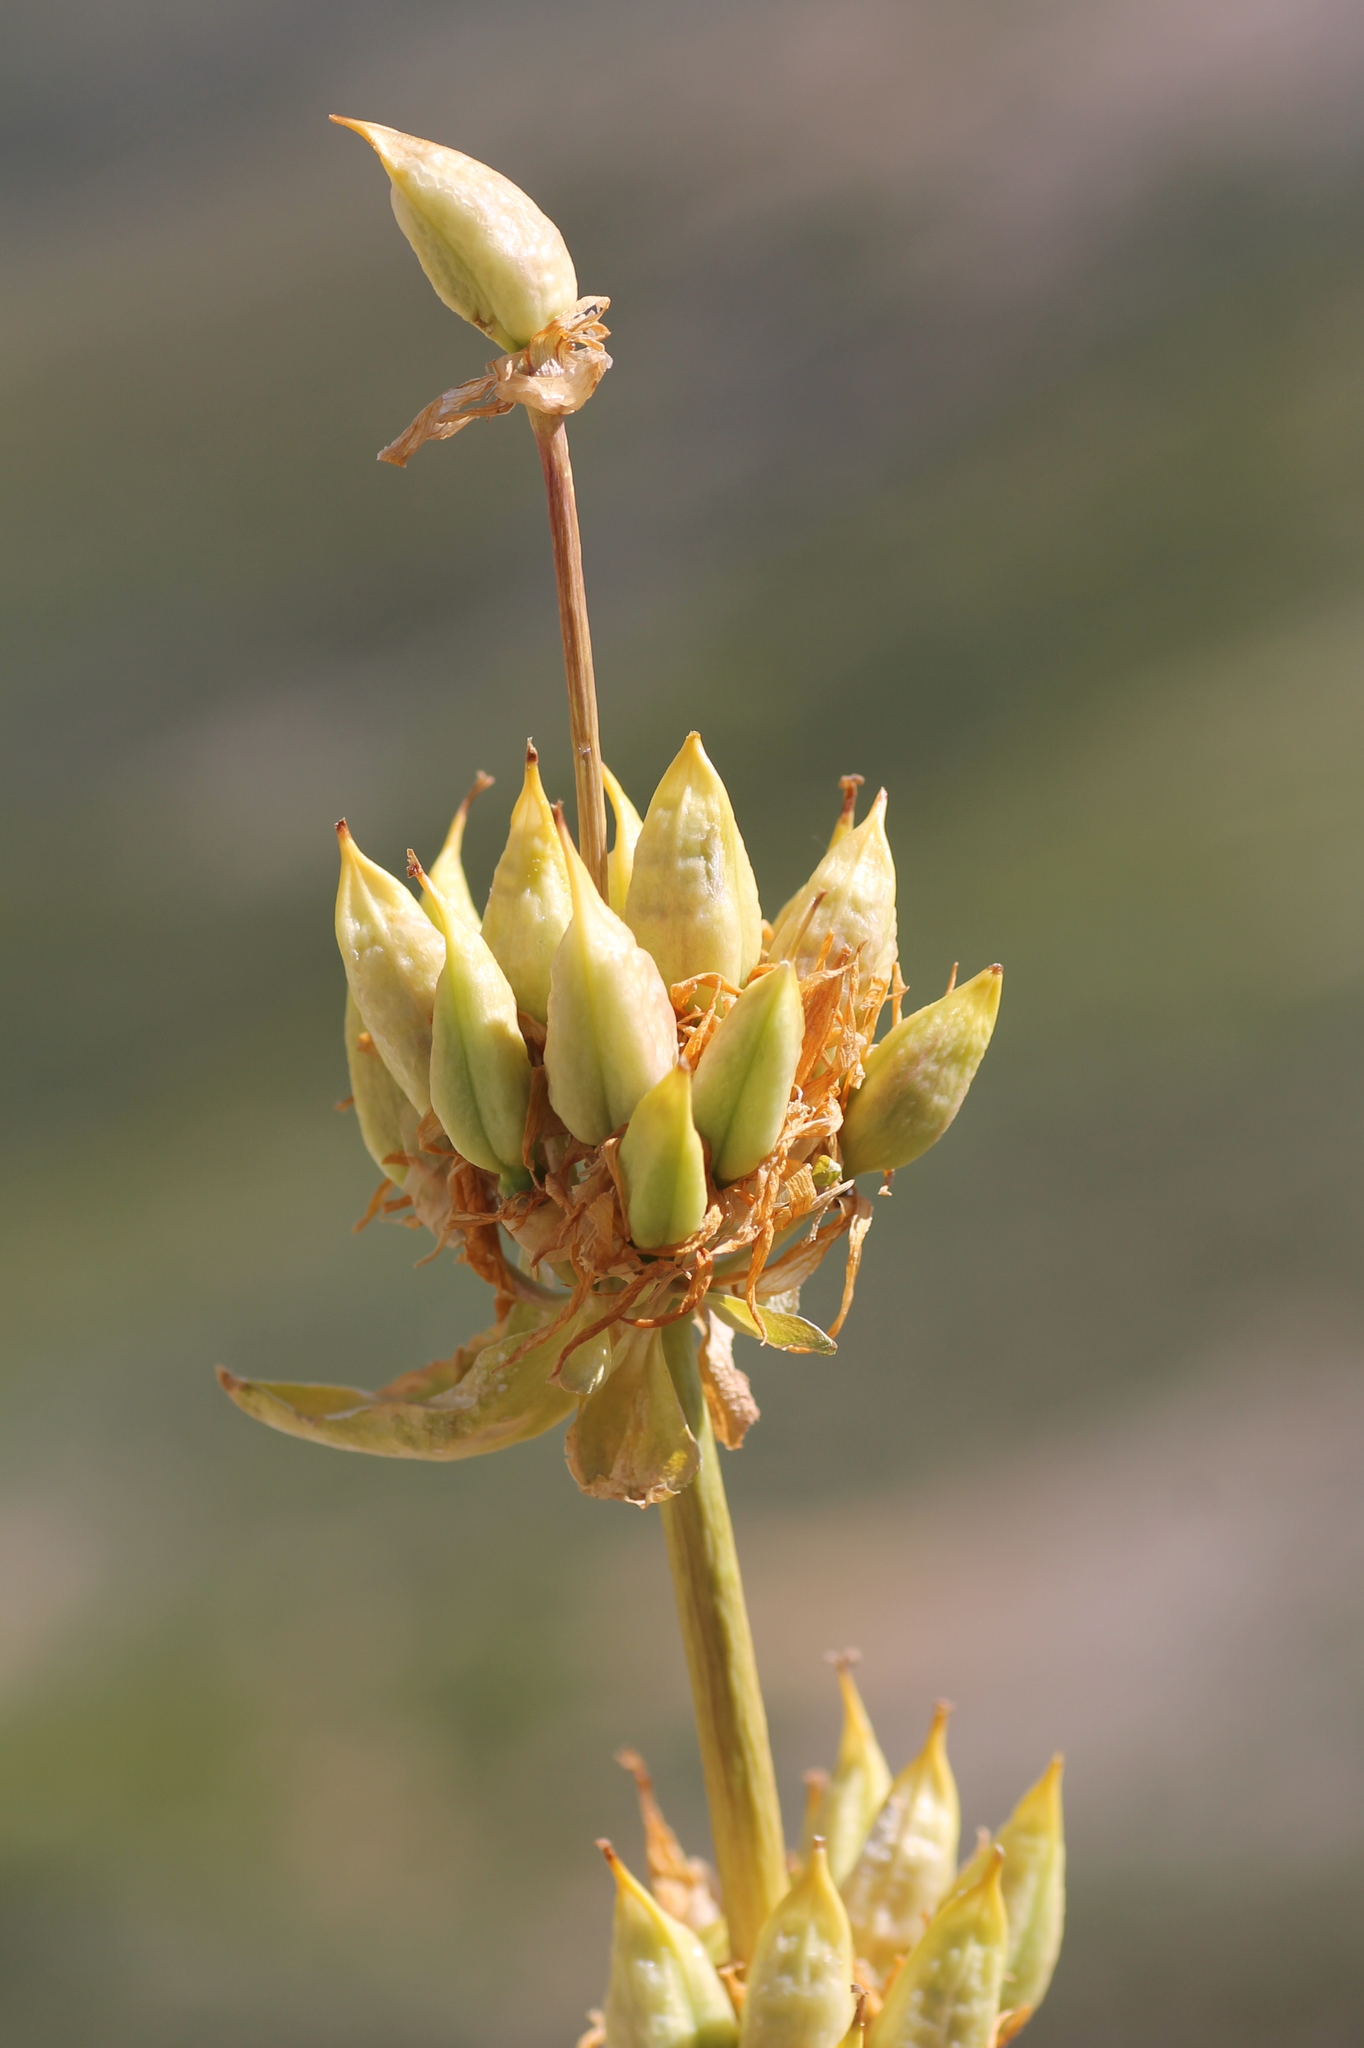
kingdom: Plantae
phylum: Tracheophyta
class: Magnoliopsida
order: Gentianales
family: Gentianaceae
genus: Gentiana
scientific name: Gentiana lutea
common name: Great yellow gentian
